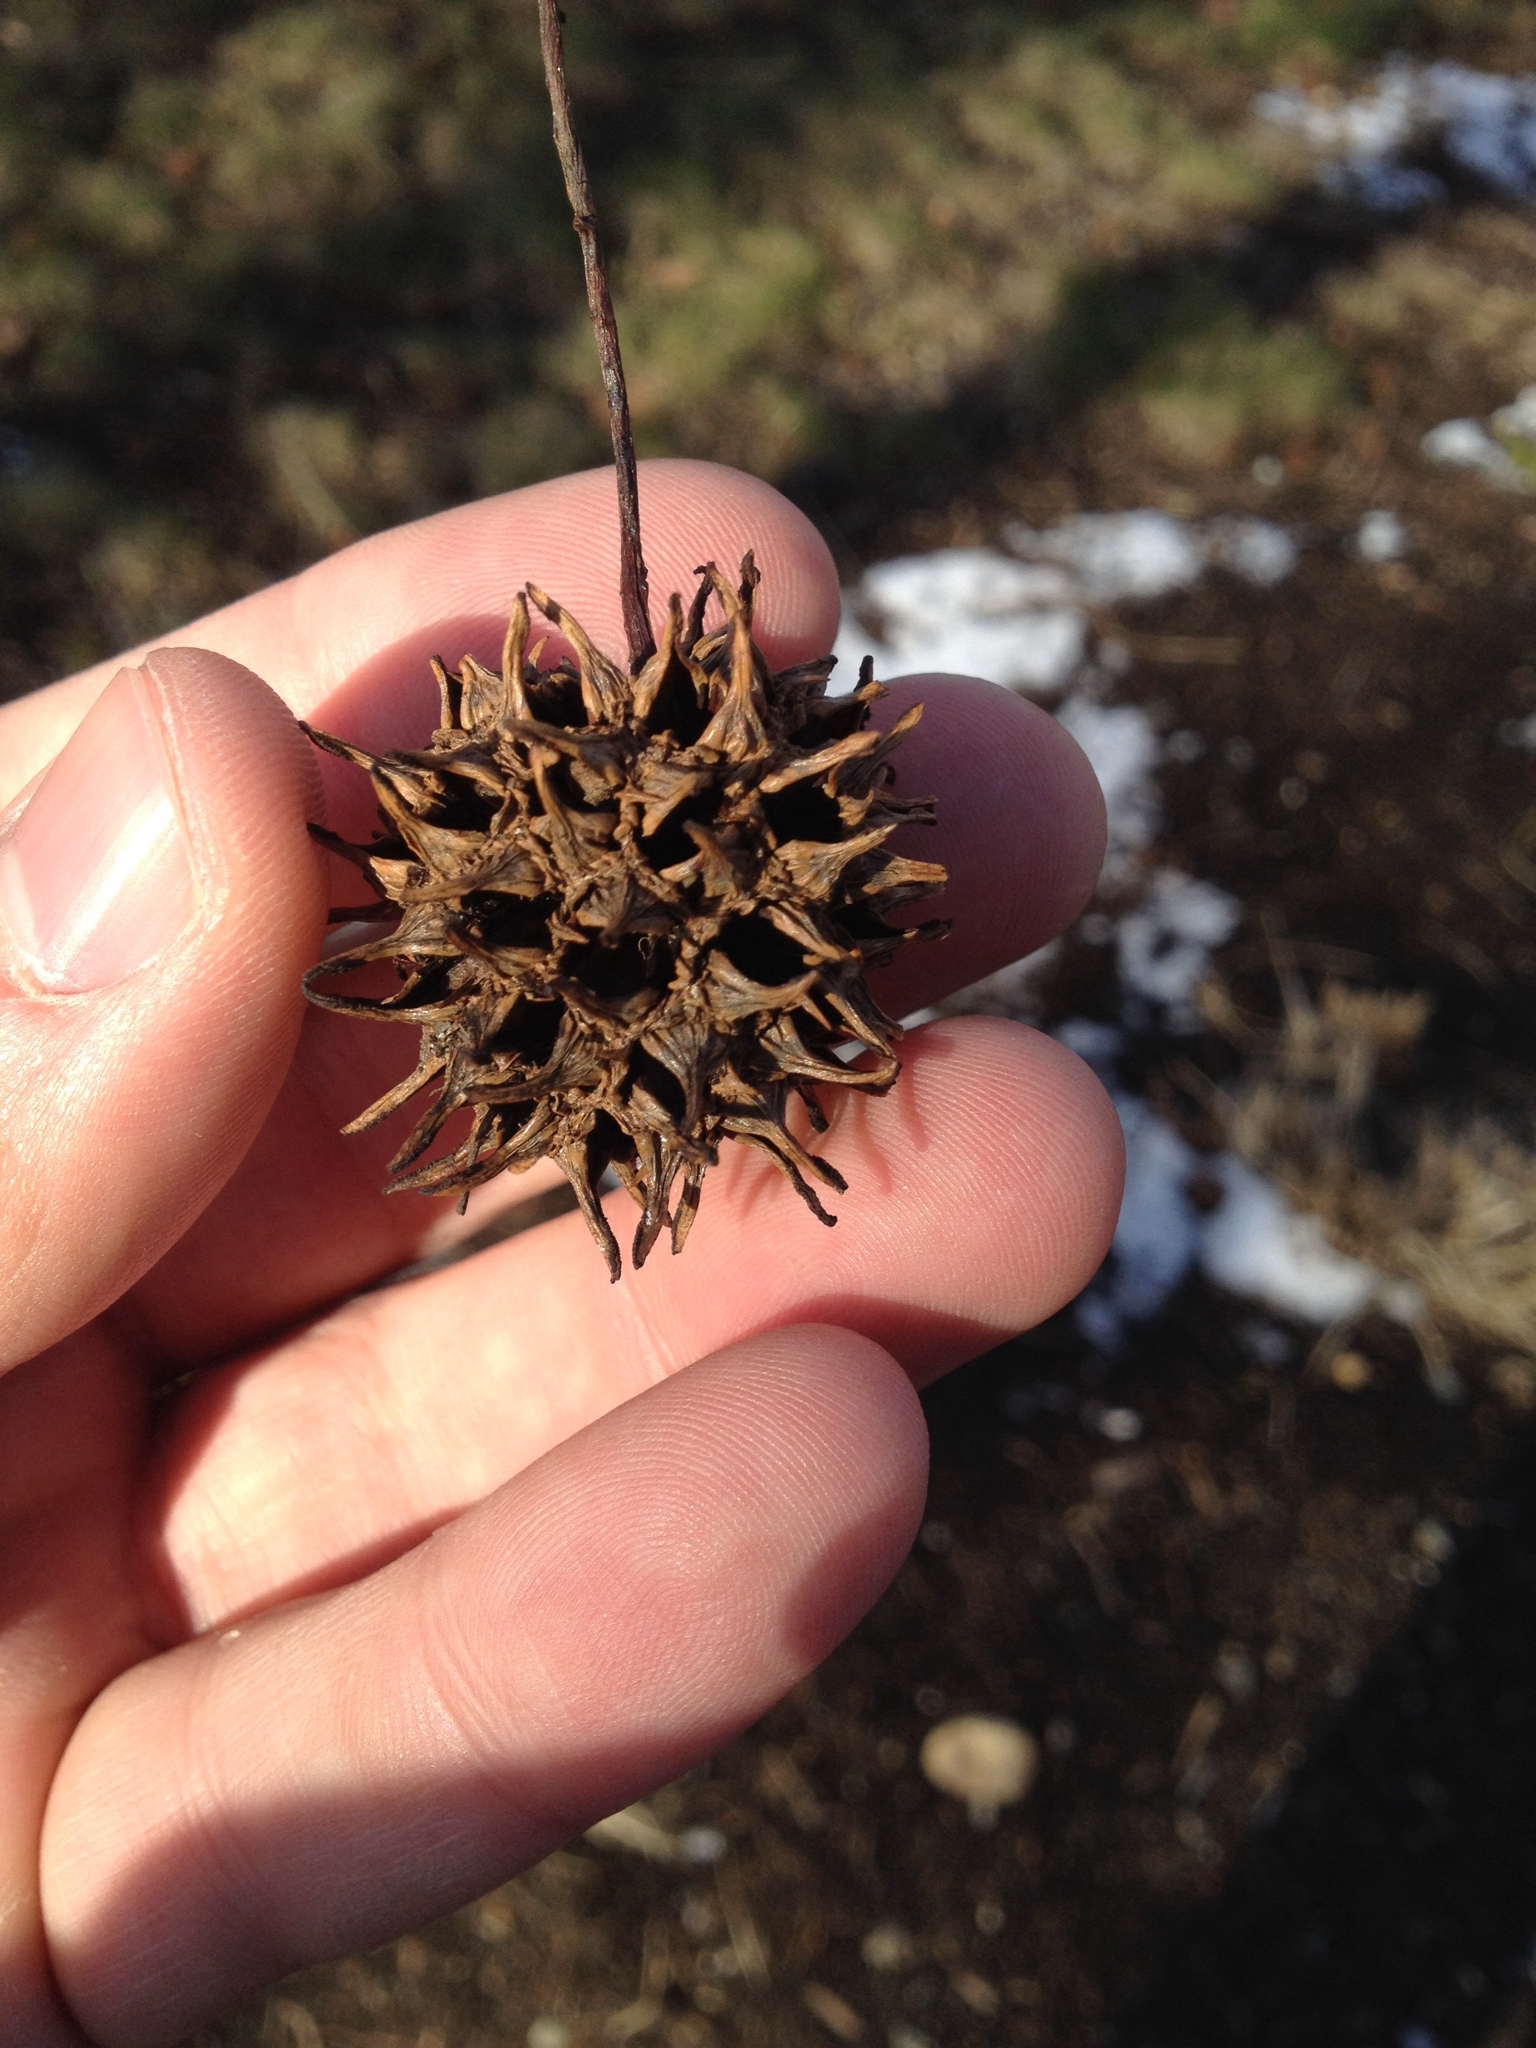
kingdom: Plantae
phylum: Tracheophyta
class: Magnoliopsida
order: Saxifragales
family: Altingiaceae
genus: Liquidambar
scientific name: Liquidambar styraciflua
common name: Sweet gum
